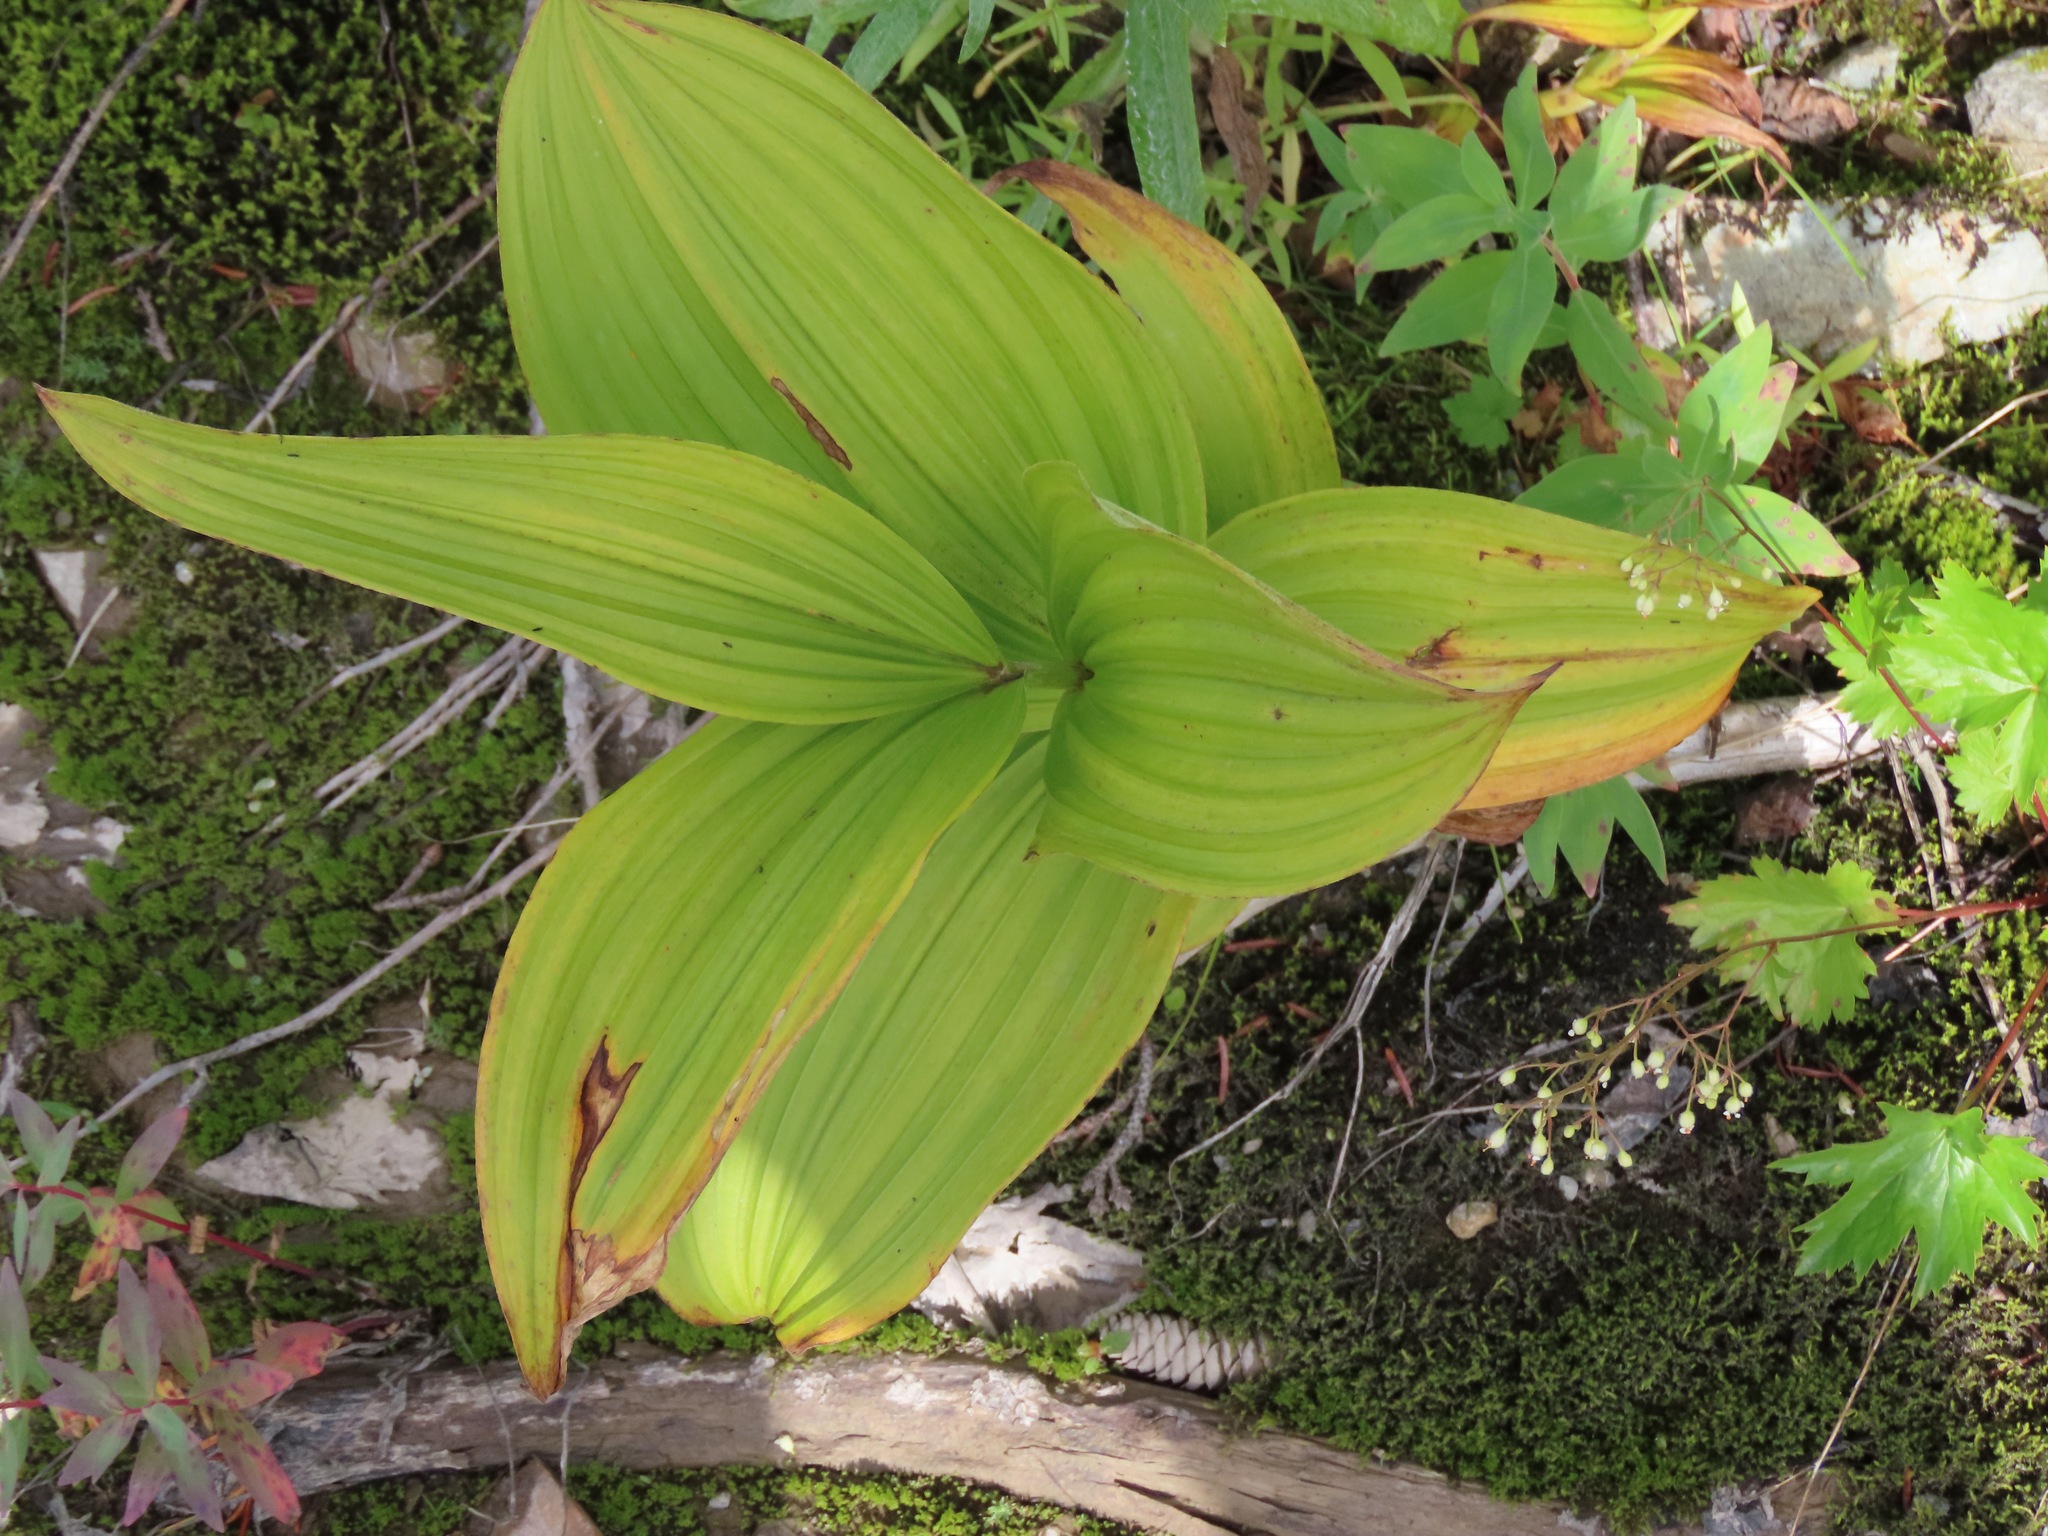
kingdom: Plantae
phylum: Tracheophyta
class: Liliopsida
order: Liliales
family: Melanthiaceae
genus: Veratrum
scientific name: Veratrum viride
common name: American false hellebore
